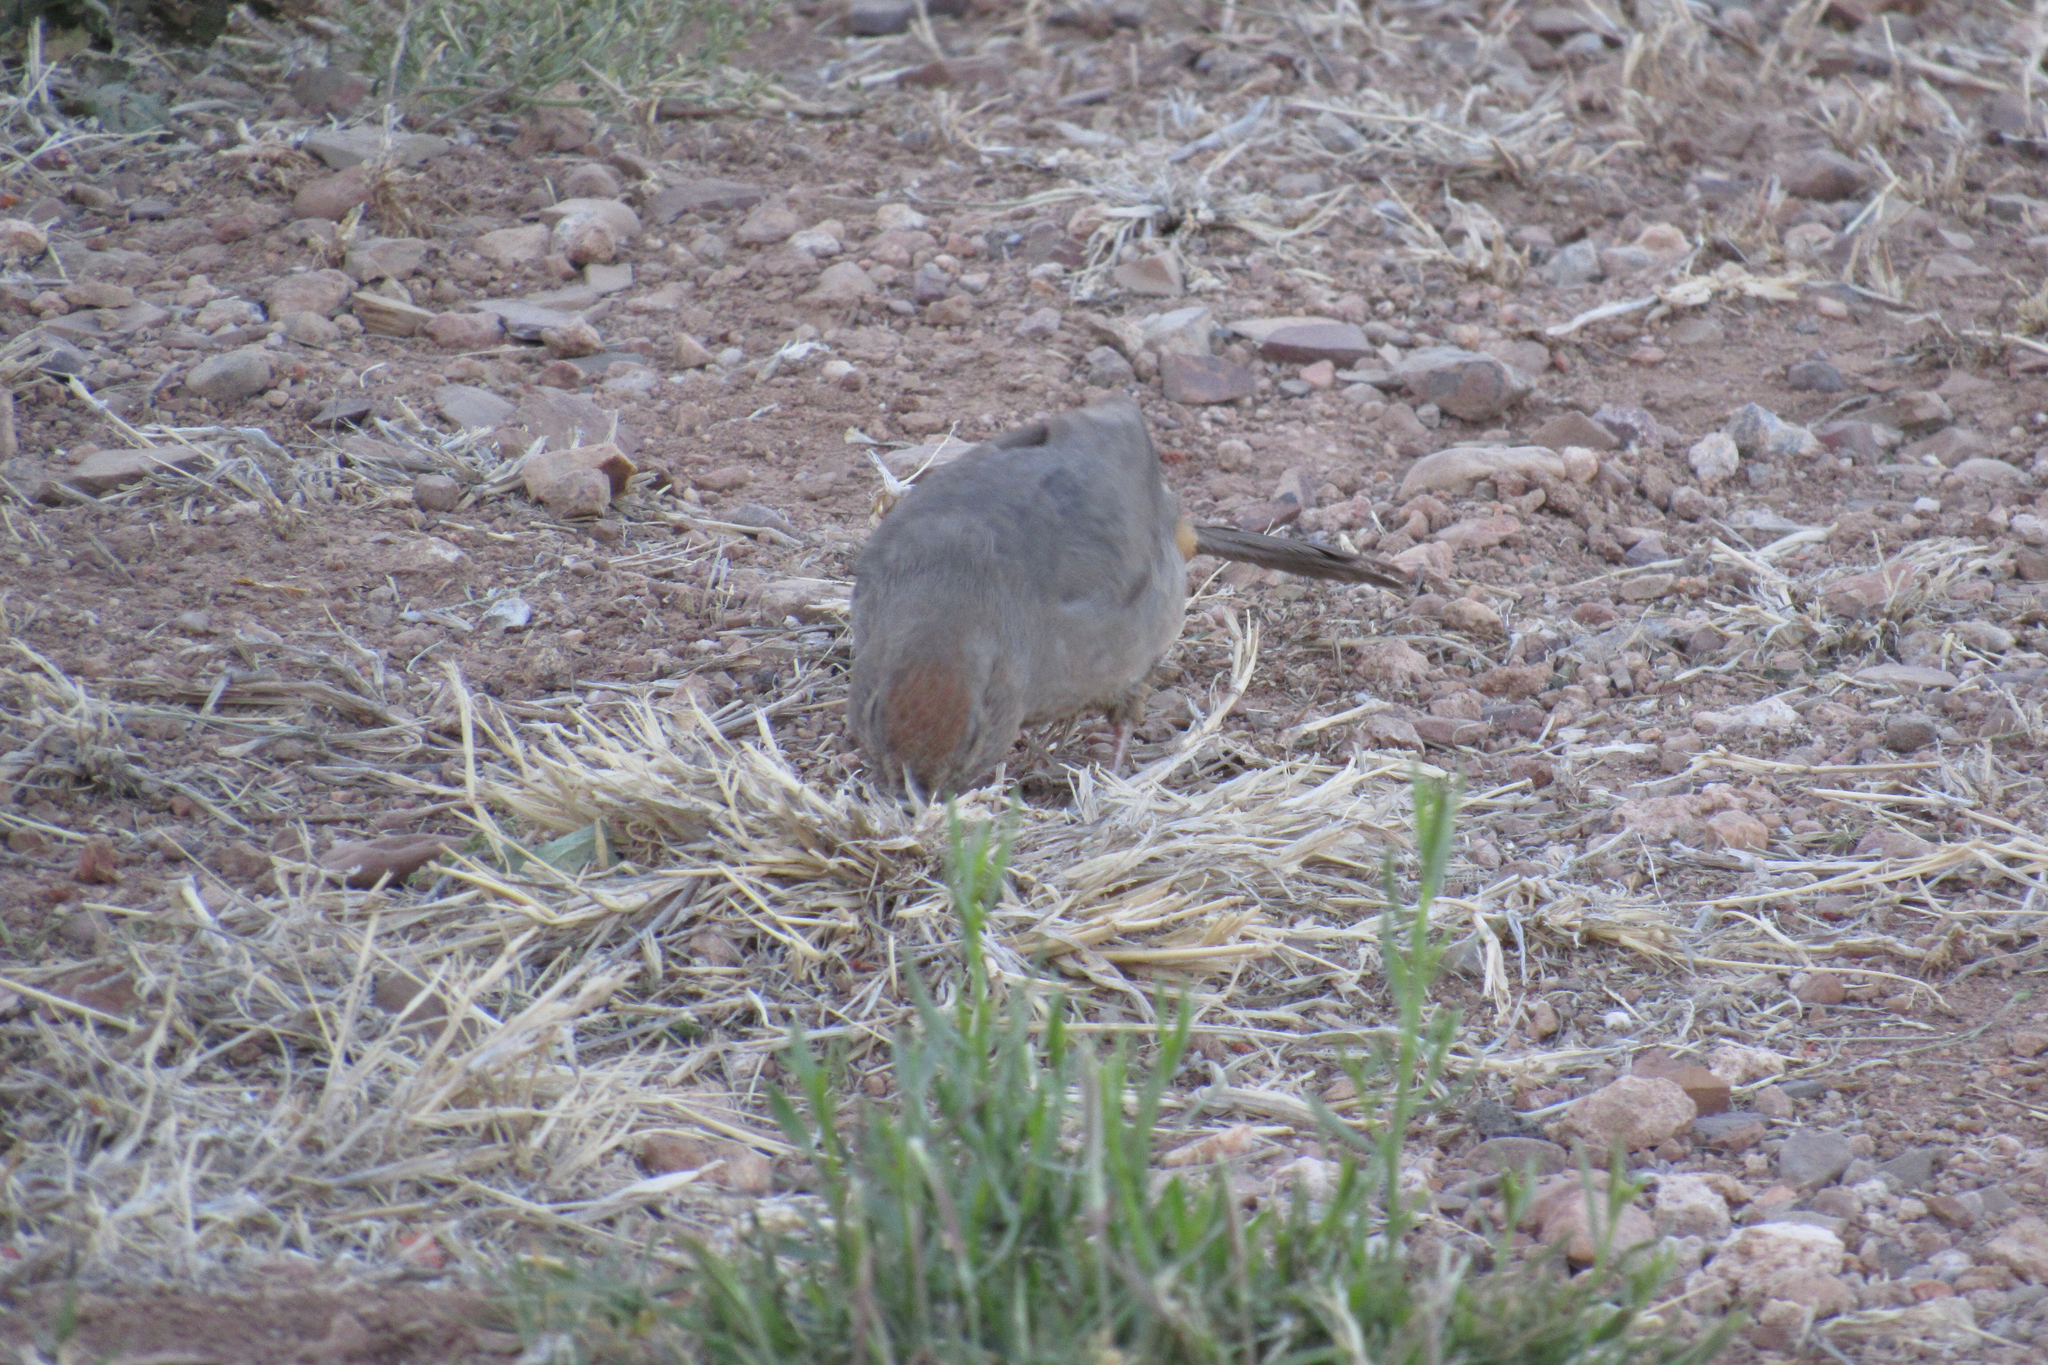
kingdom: Animalia
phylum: Chordata
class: Aves
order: Passeriformes
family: Passerellidae
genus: Melozone
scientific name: Melozone fusca
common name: Canyon towhee
